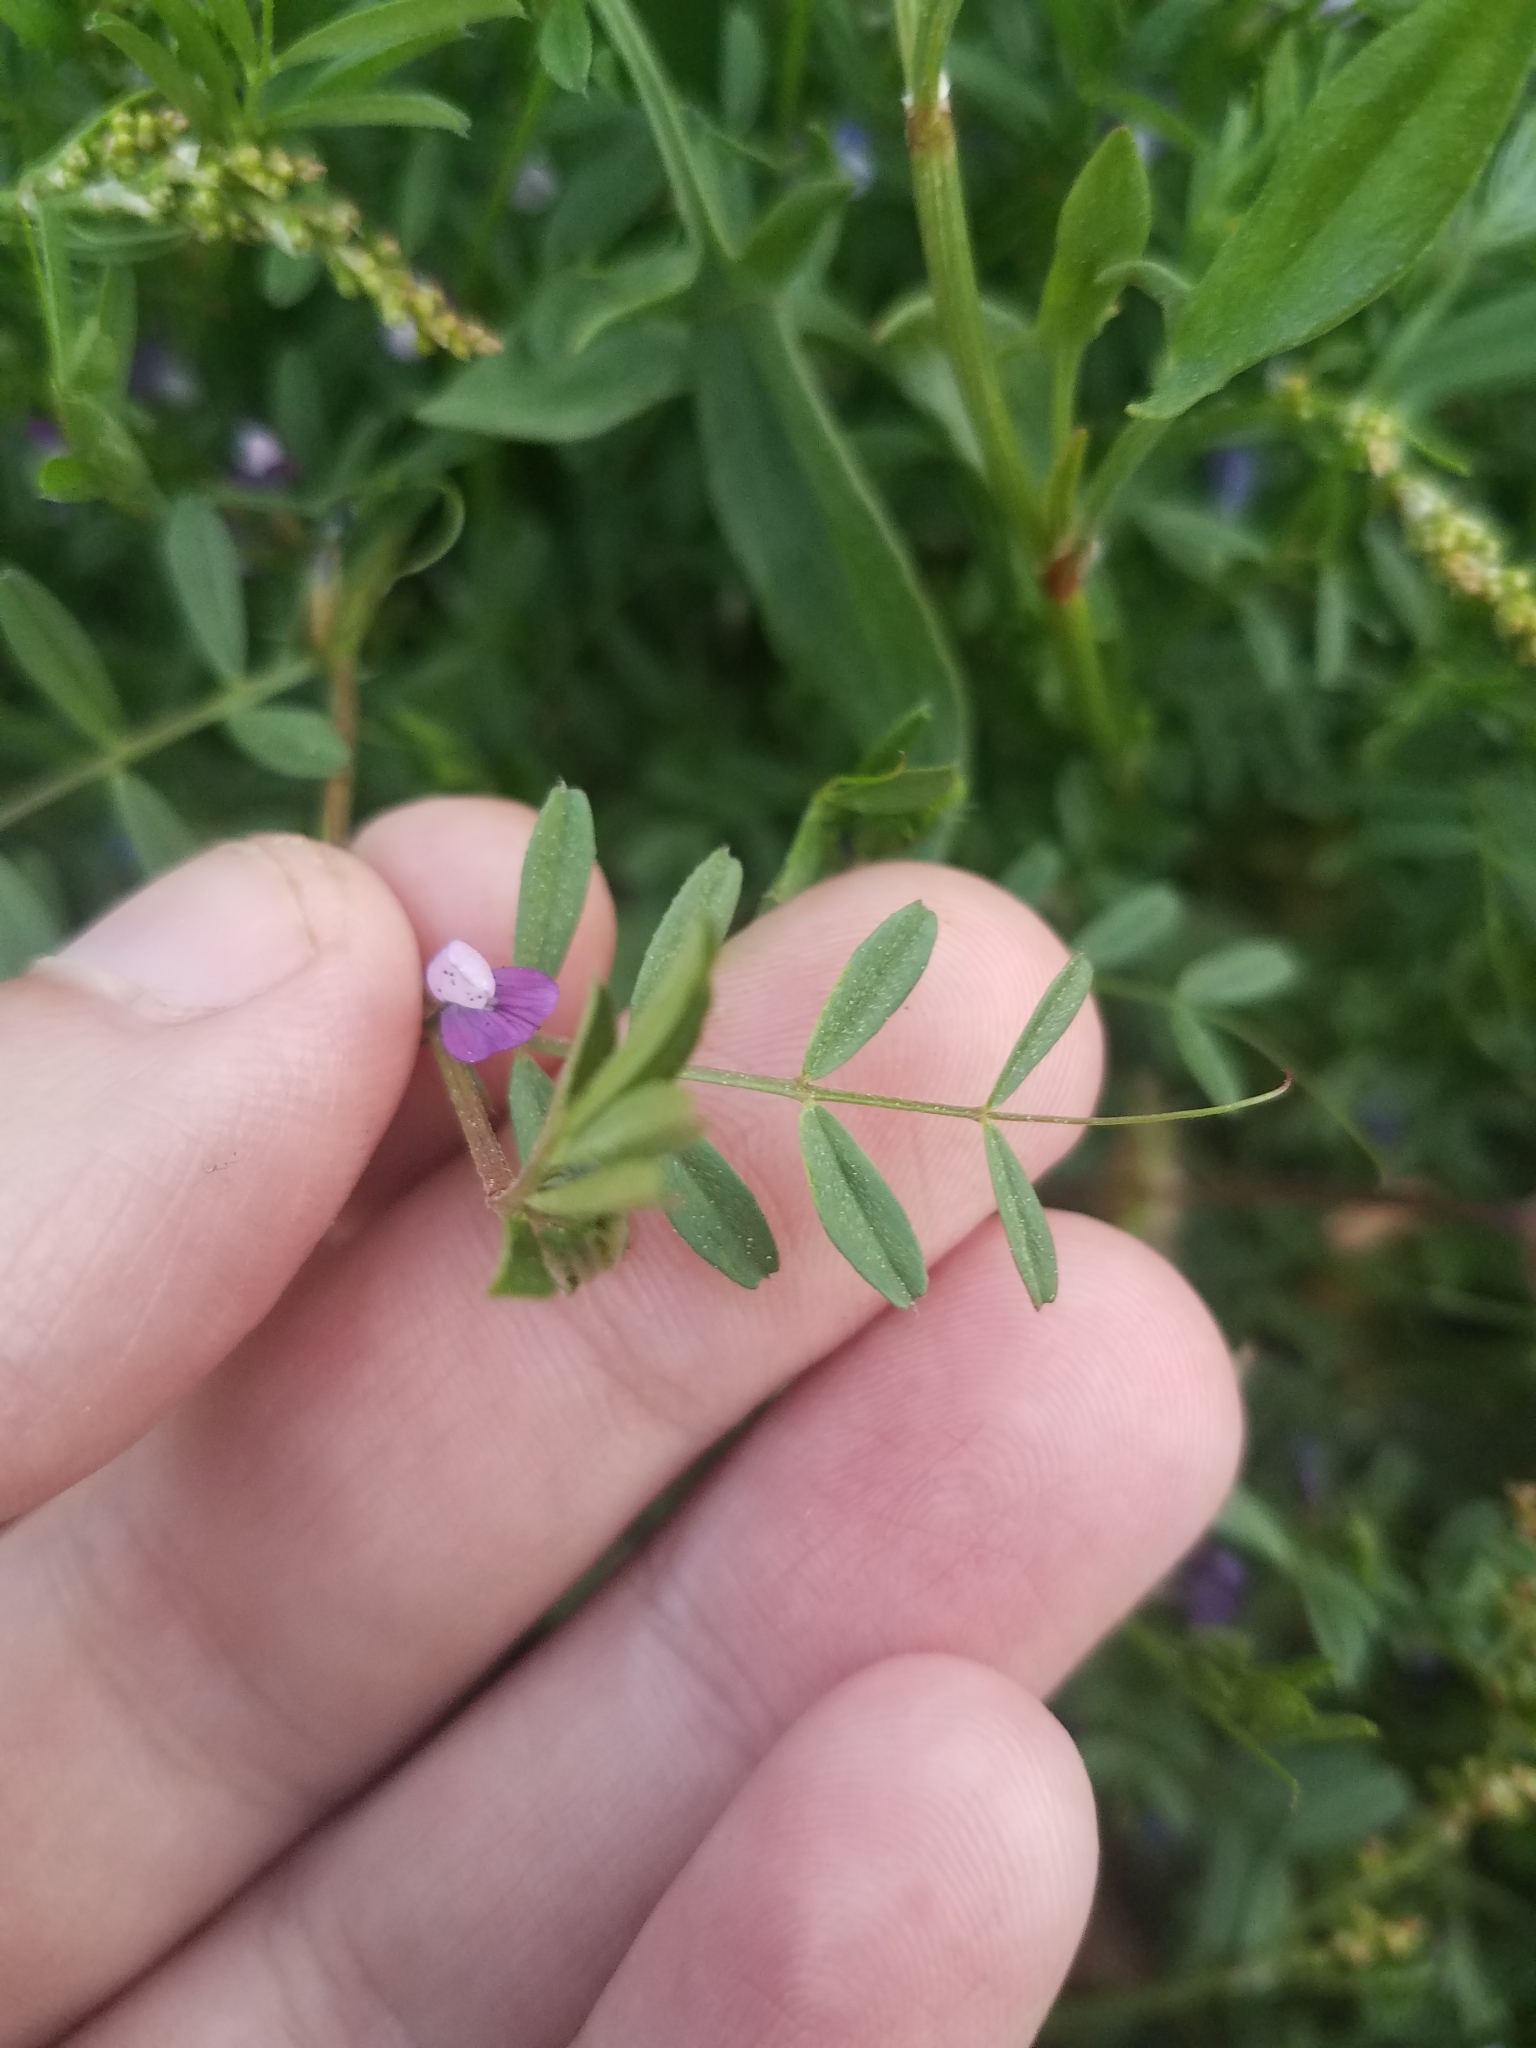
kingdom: Plantae
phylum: Tracheophyta
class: Magnoliopsida
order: Fabales
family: Fabaceae
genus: Vicia
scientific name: Vicia lathyroides
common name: Spring vetch
